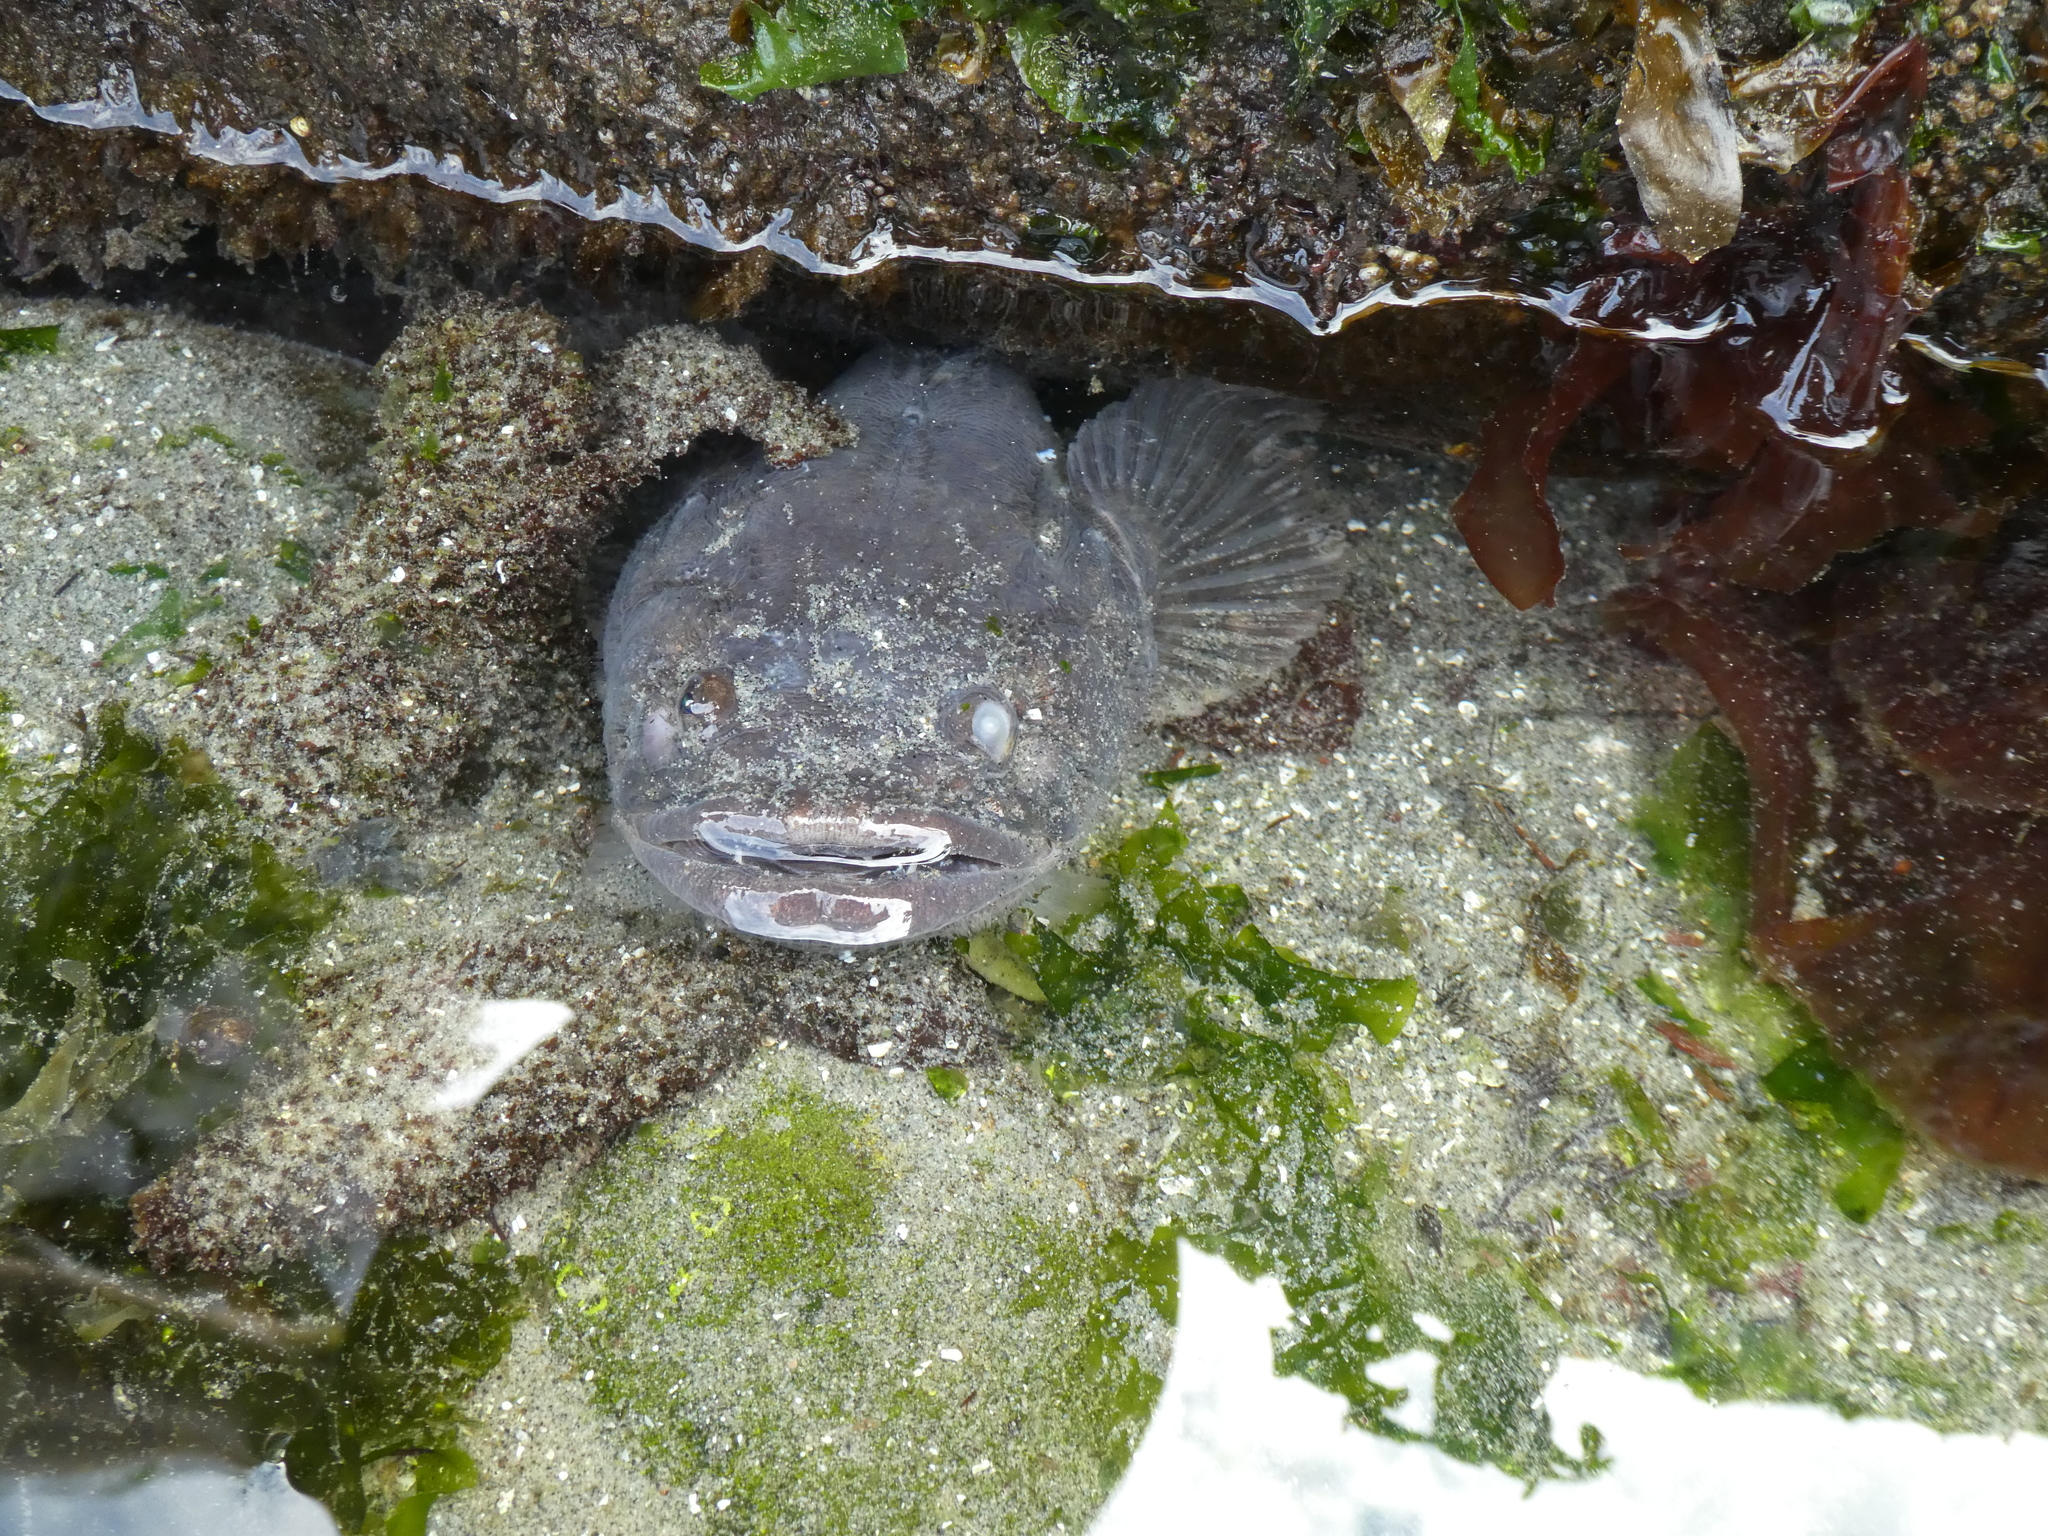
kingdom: Animalia
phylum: Chordata
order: Batrachoidiformes
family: Batrachoididae
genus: Porichthys
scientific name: Porichthys notatus
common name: Plainfin midshipman
